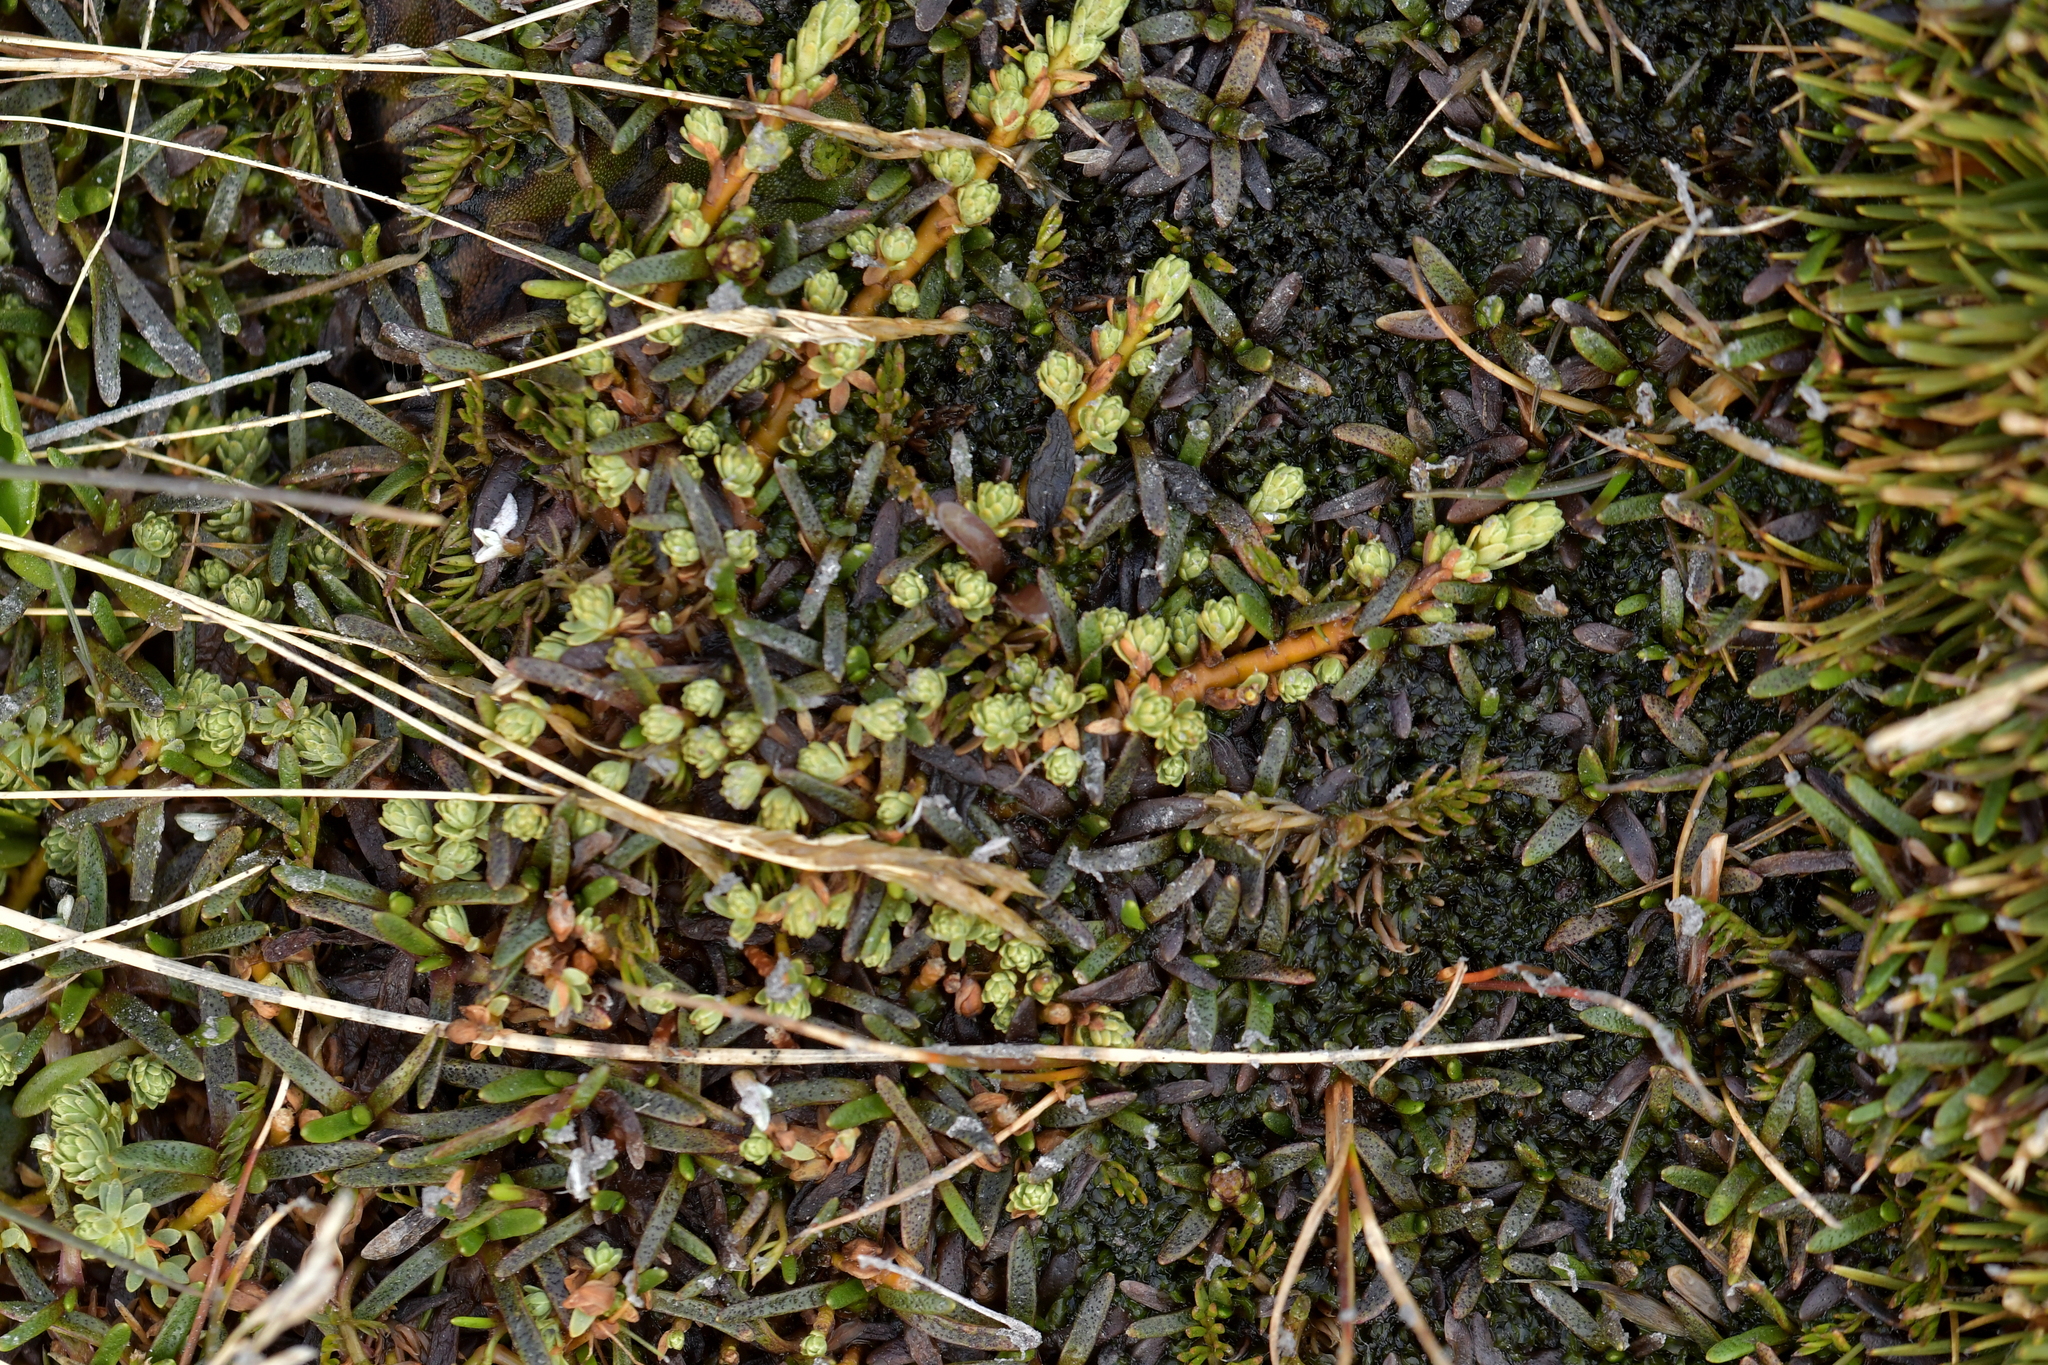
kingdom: Plantae
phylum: Tracheophyta
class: Magnoliopsida
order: Malvales
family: Thymelaeaceae
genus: Kelleria
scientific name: Kelleria paludosa
